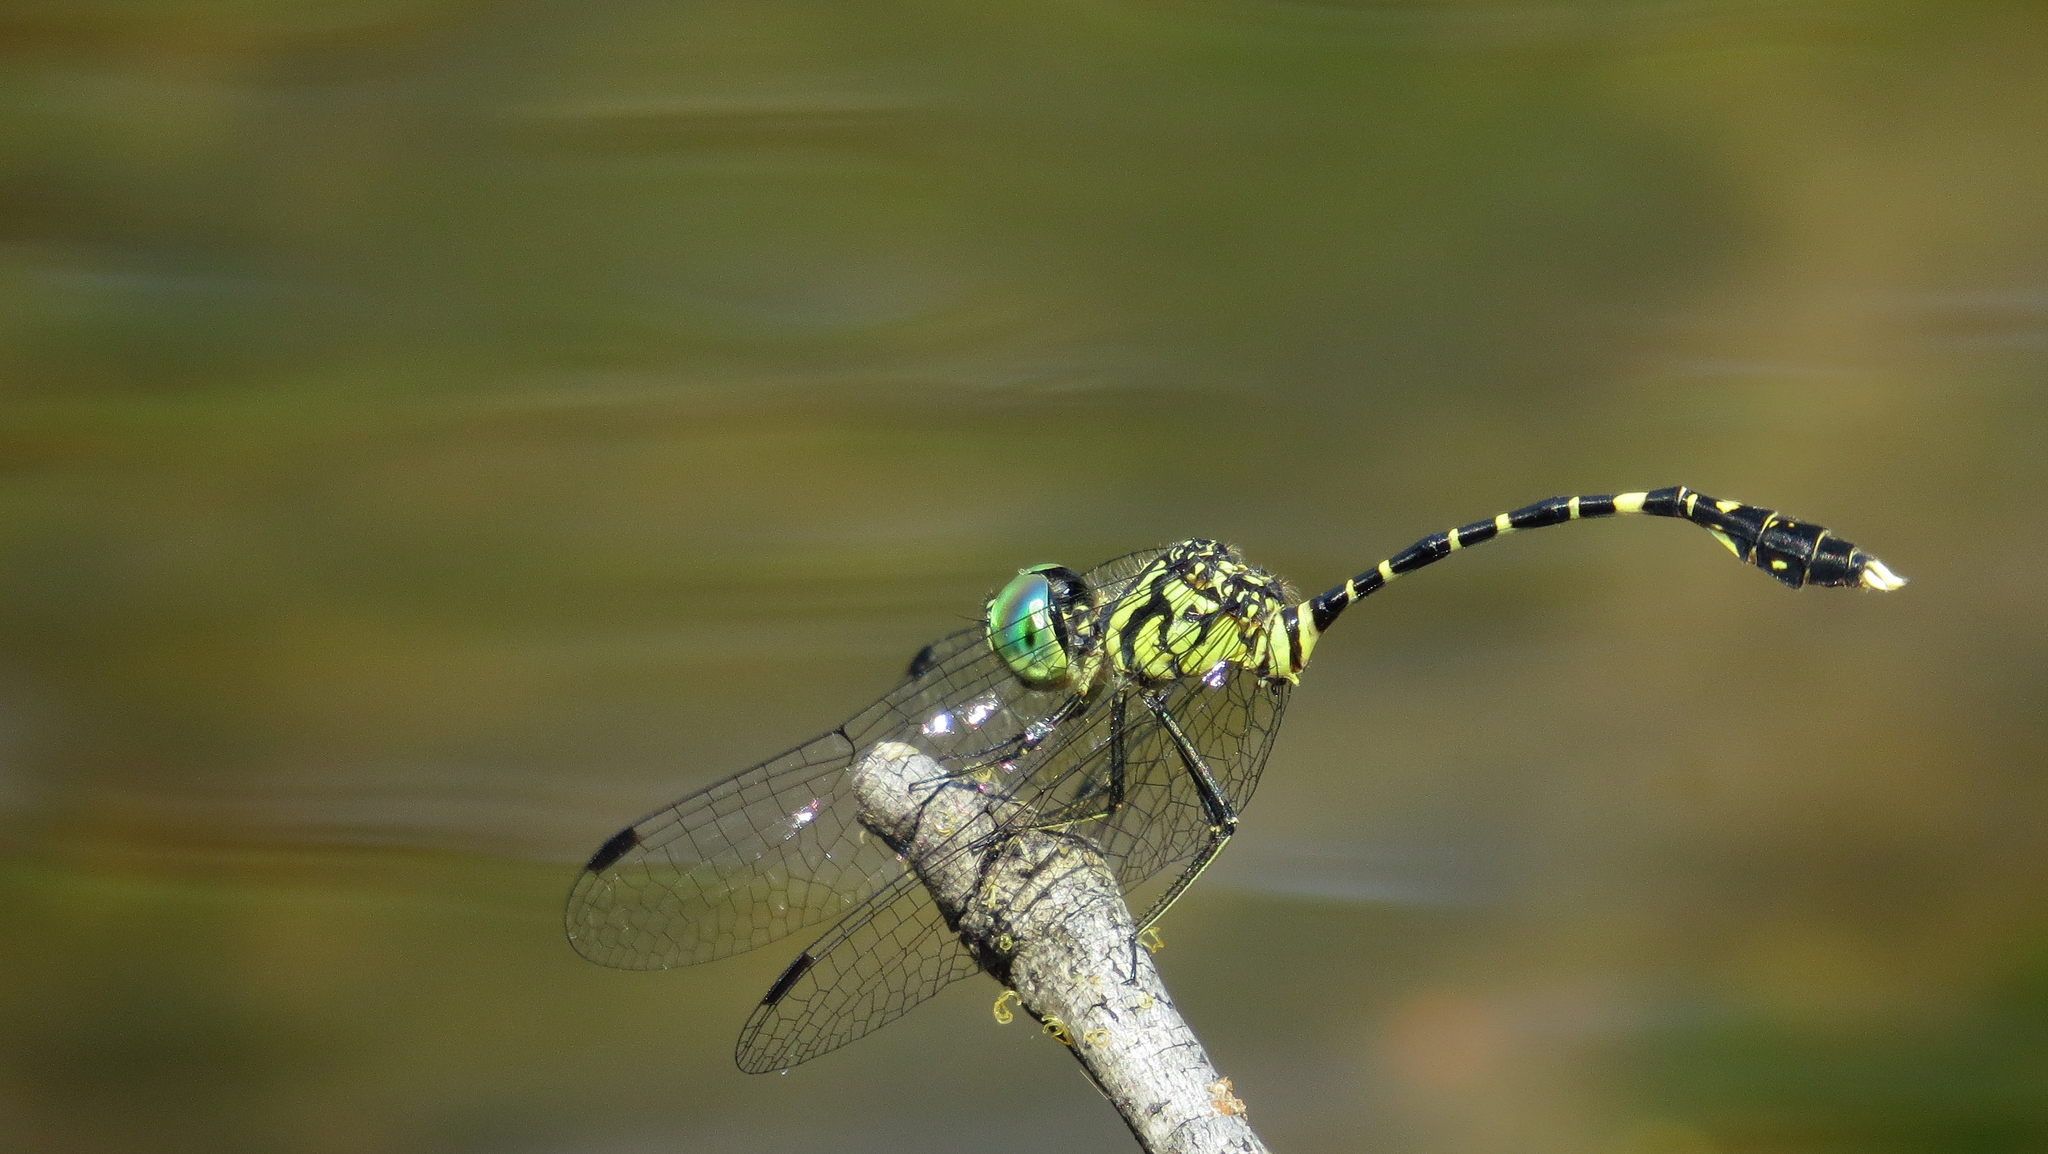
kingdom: Animalia
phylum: Arthropoda
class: Insecta
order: Odonata
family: Libellulidae
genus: Nannophlebia
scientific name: Nannophlebia risi
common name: Common archtail
